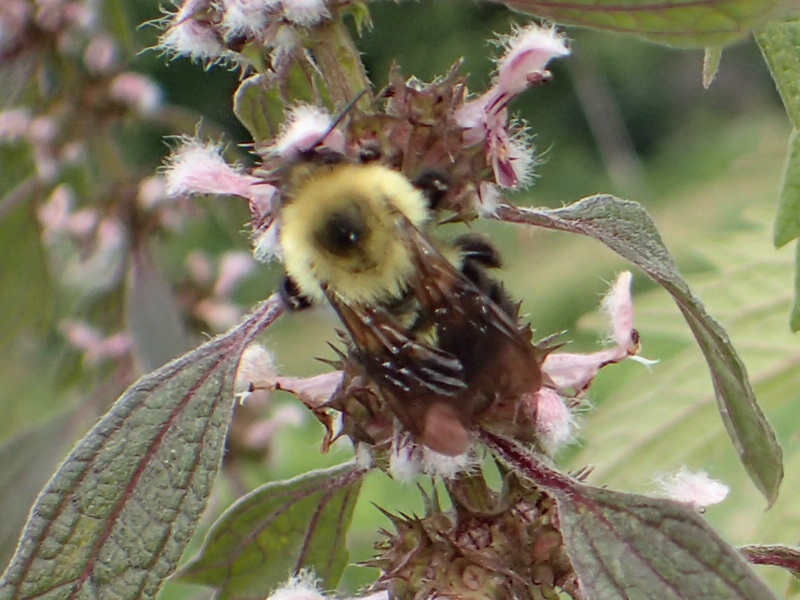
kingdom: Animalia
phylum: Arthropoda
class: Insecta
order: Hymenoptera
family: Apidae
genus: Bombus
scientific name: Bombus bimaculatus
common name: Two-spotted bumble bee
